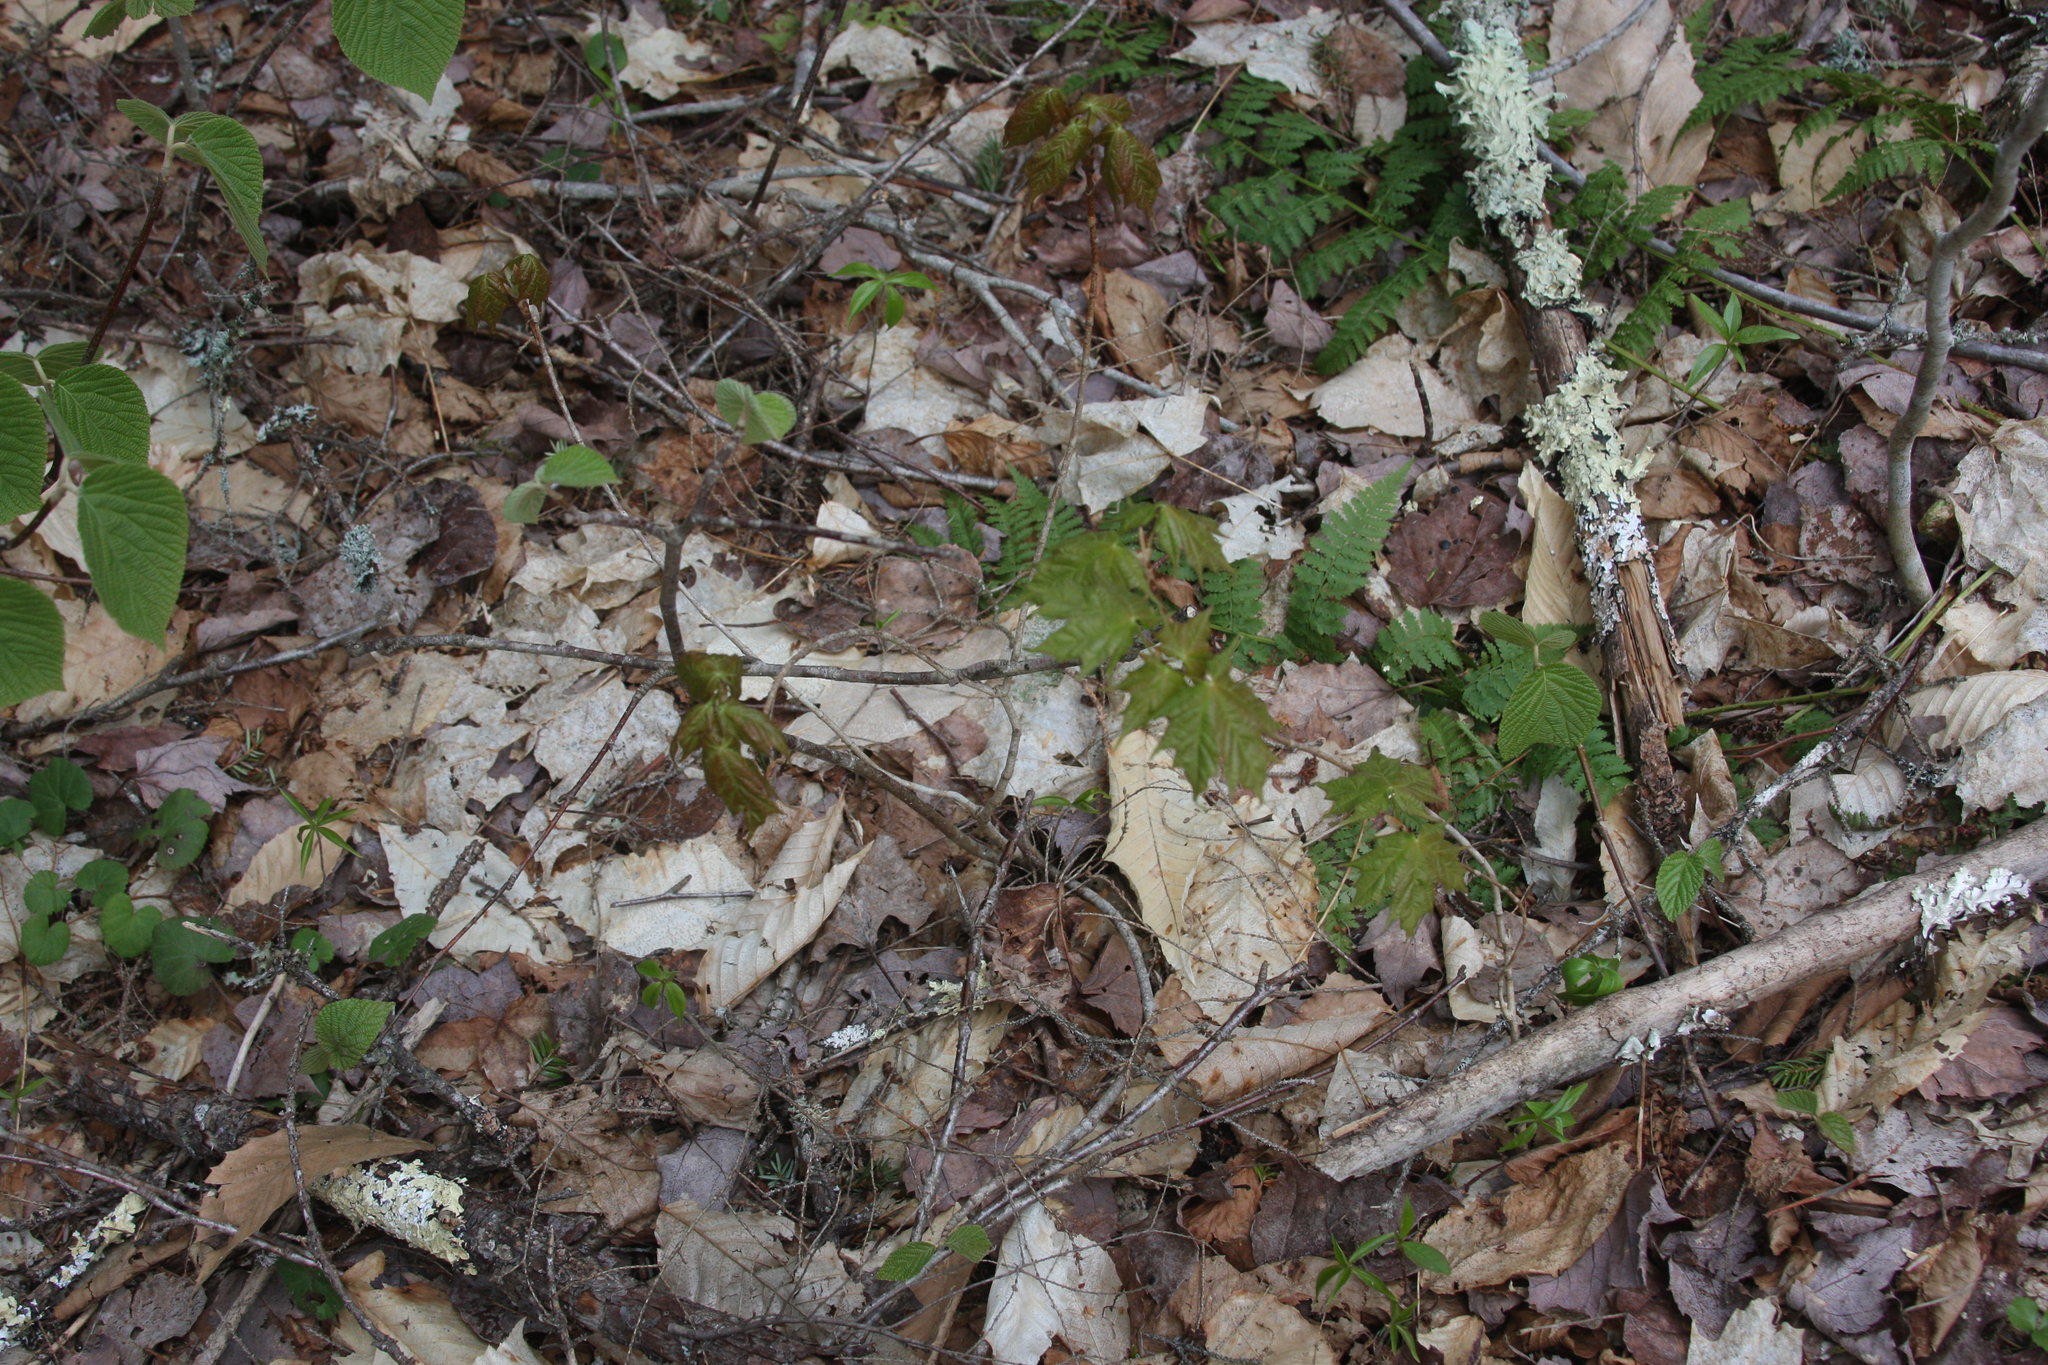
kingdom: Plantae
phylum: Tracheophyta
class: Magnoliopsida
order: Sapindales
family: Sapindaceae
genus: Acer
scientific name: Acer saccharum
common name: Sugar maple
